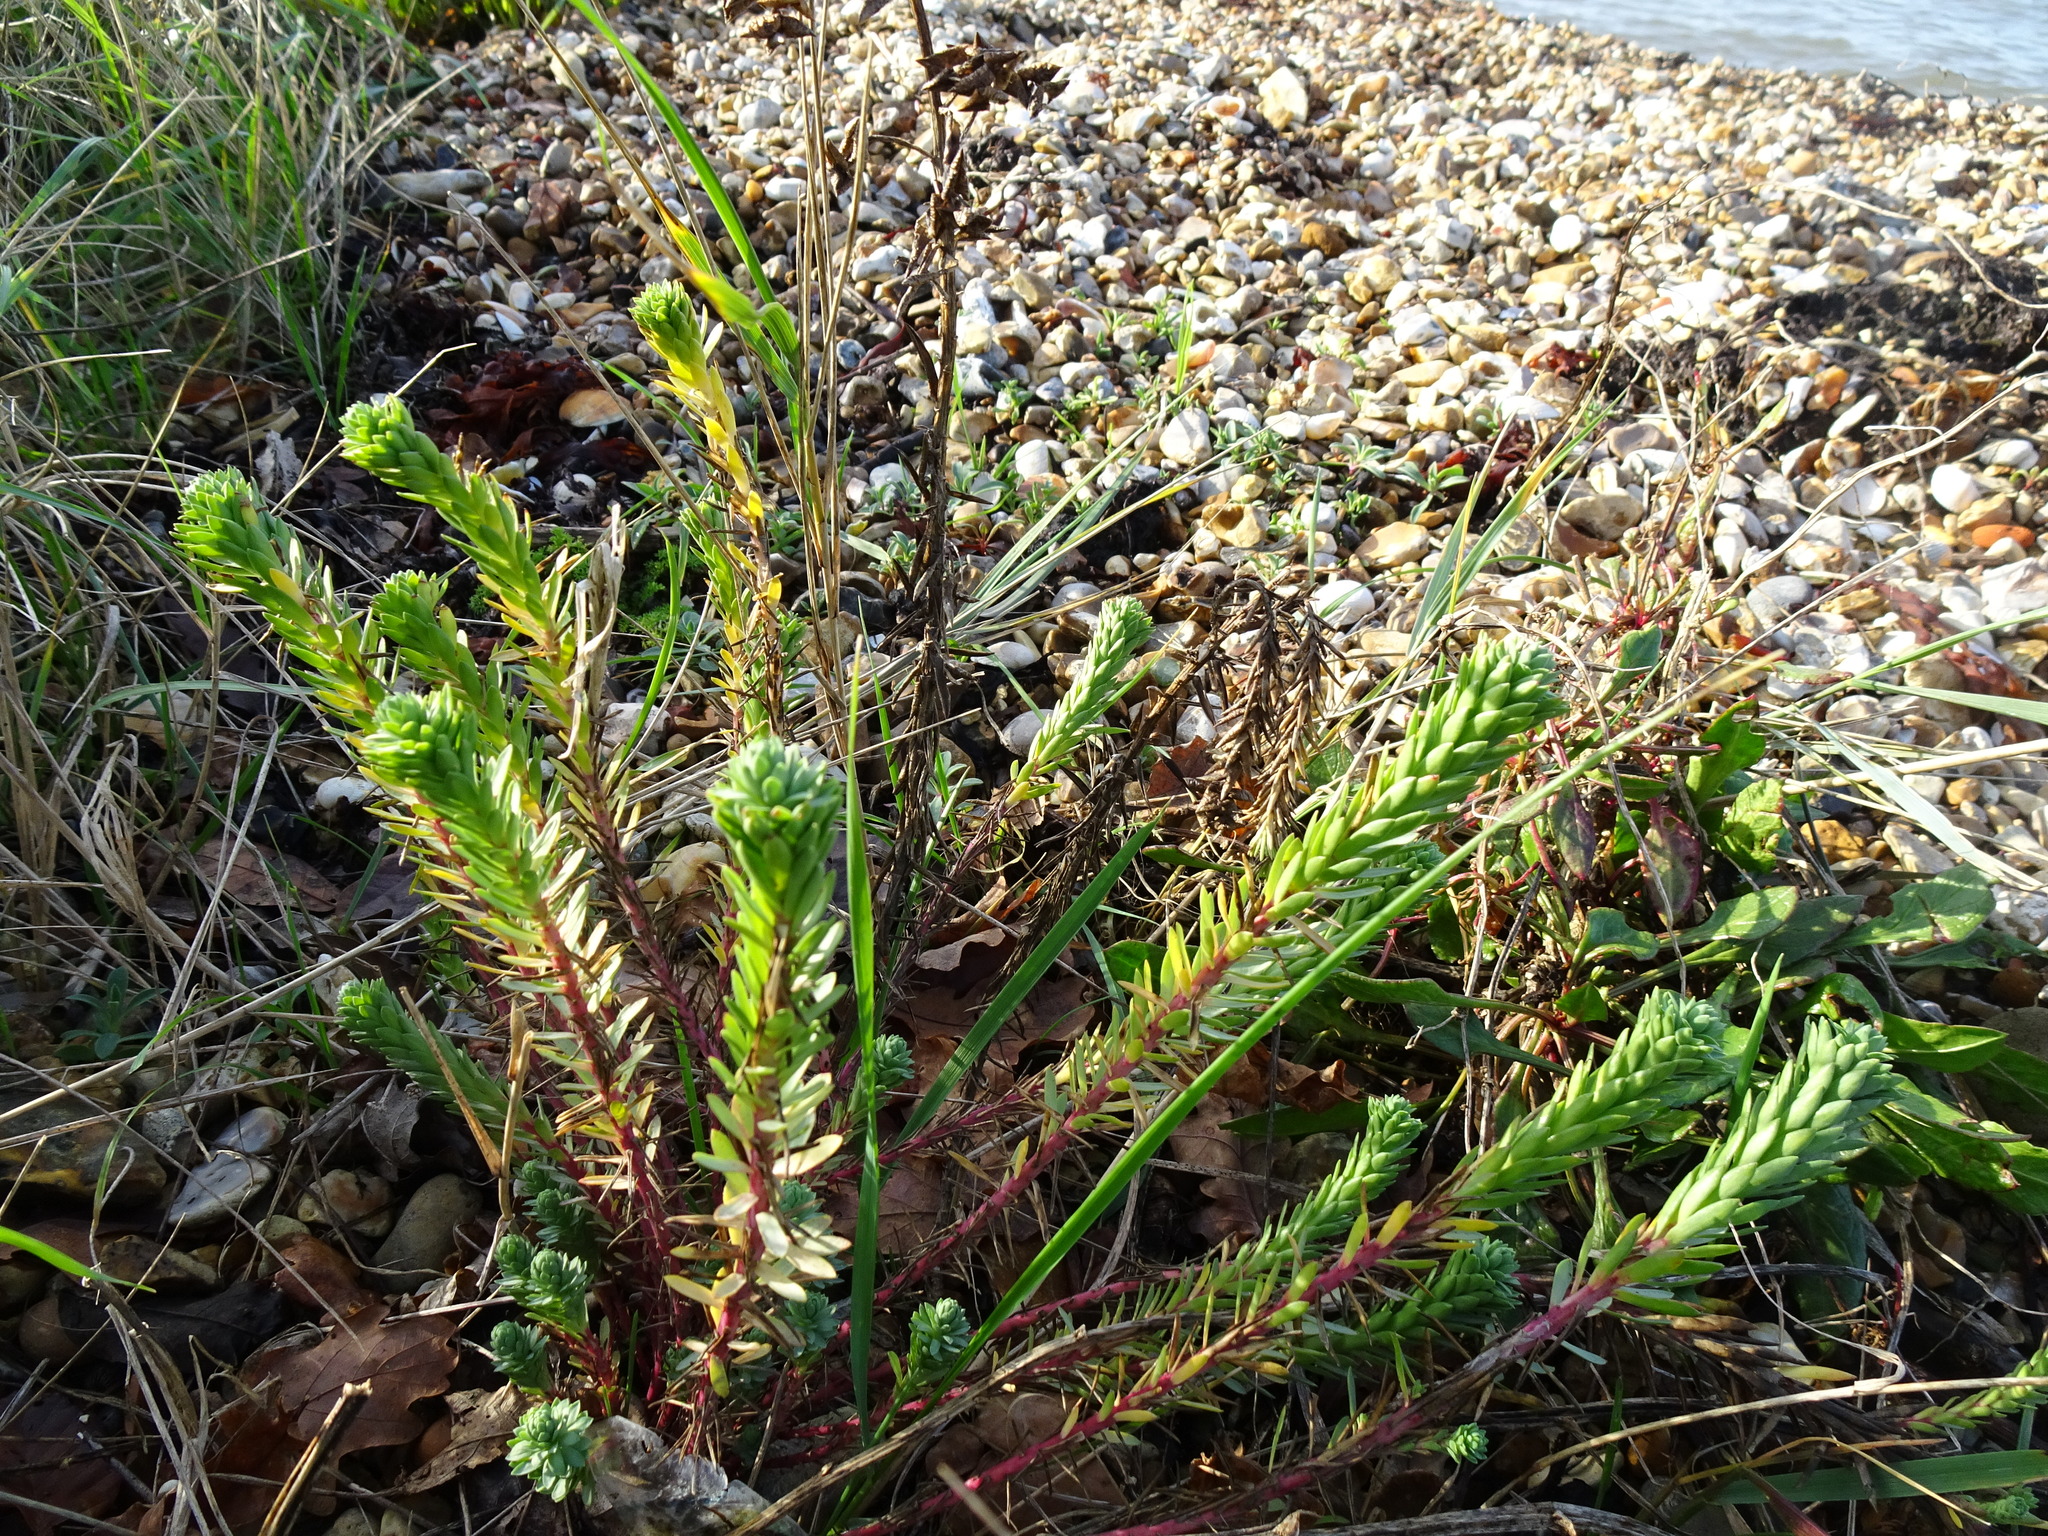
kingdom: Plantae
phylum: Tracheophyta
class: Magnoliopsida
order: Malpighiales
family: Euphorbiaceae
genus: Euphorbia
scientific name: Euphorbia paralias
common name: Sea spurge
